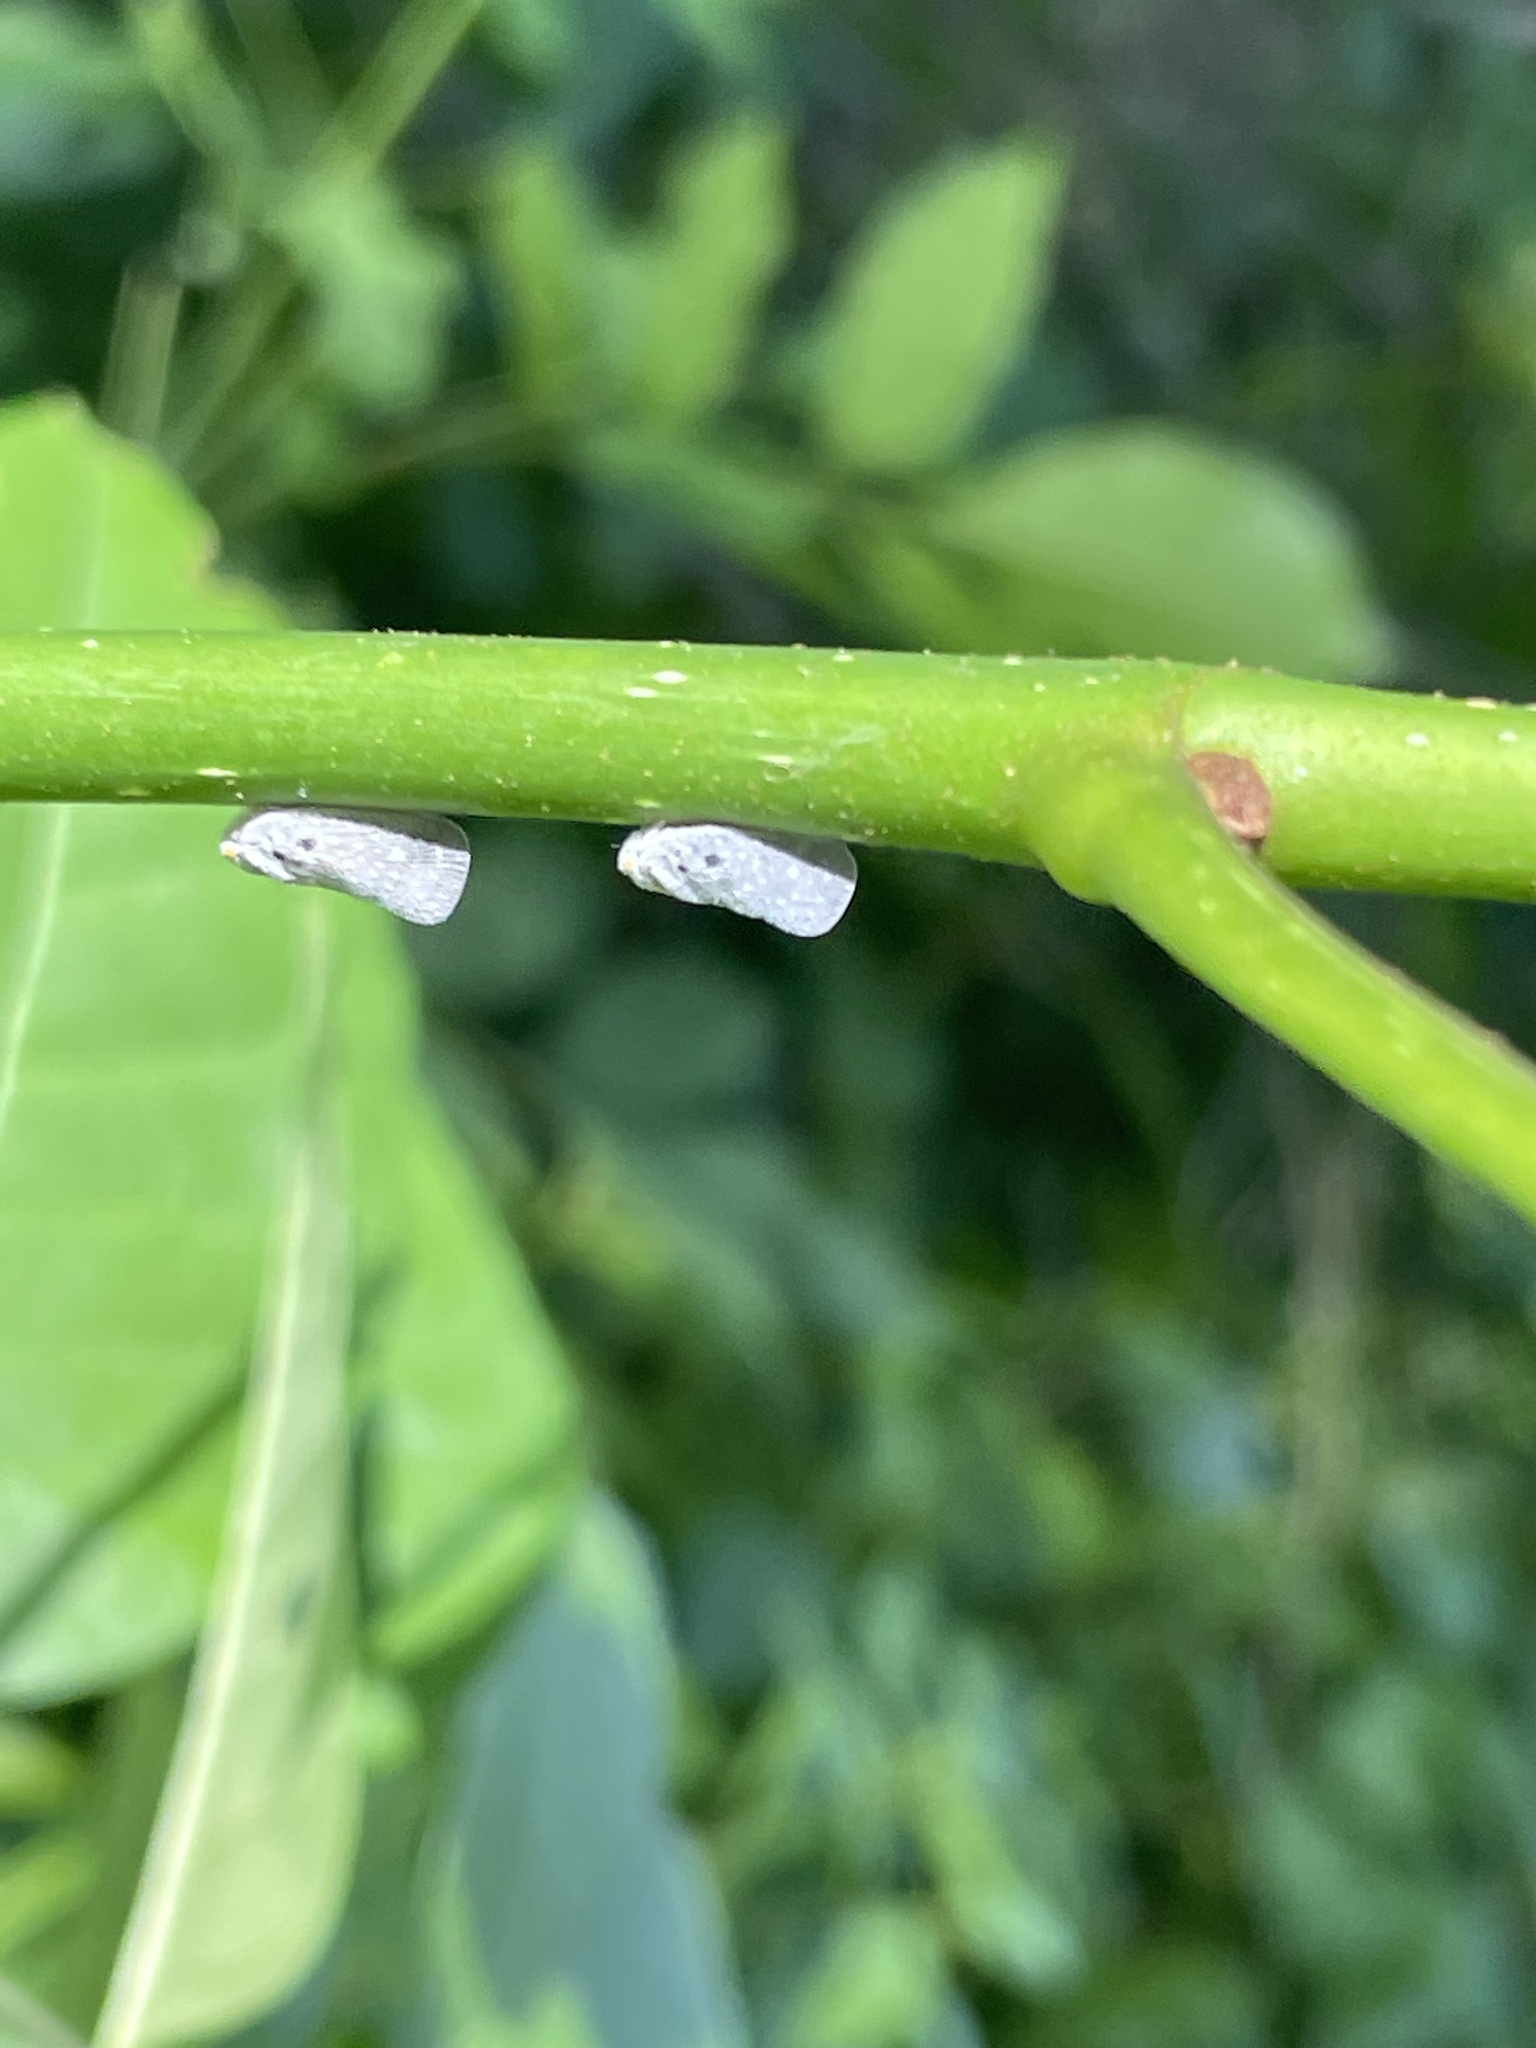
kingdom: Animalia
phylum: Arthropoda
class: Insecta
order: Hemiptera
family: Flatidae
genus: Metcalfa
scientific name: Metcalfa pruinosa
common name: Citrus flatid planthopper
